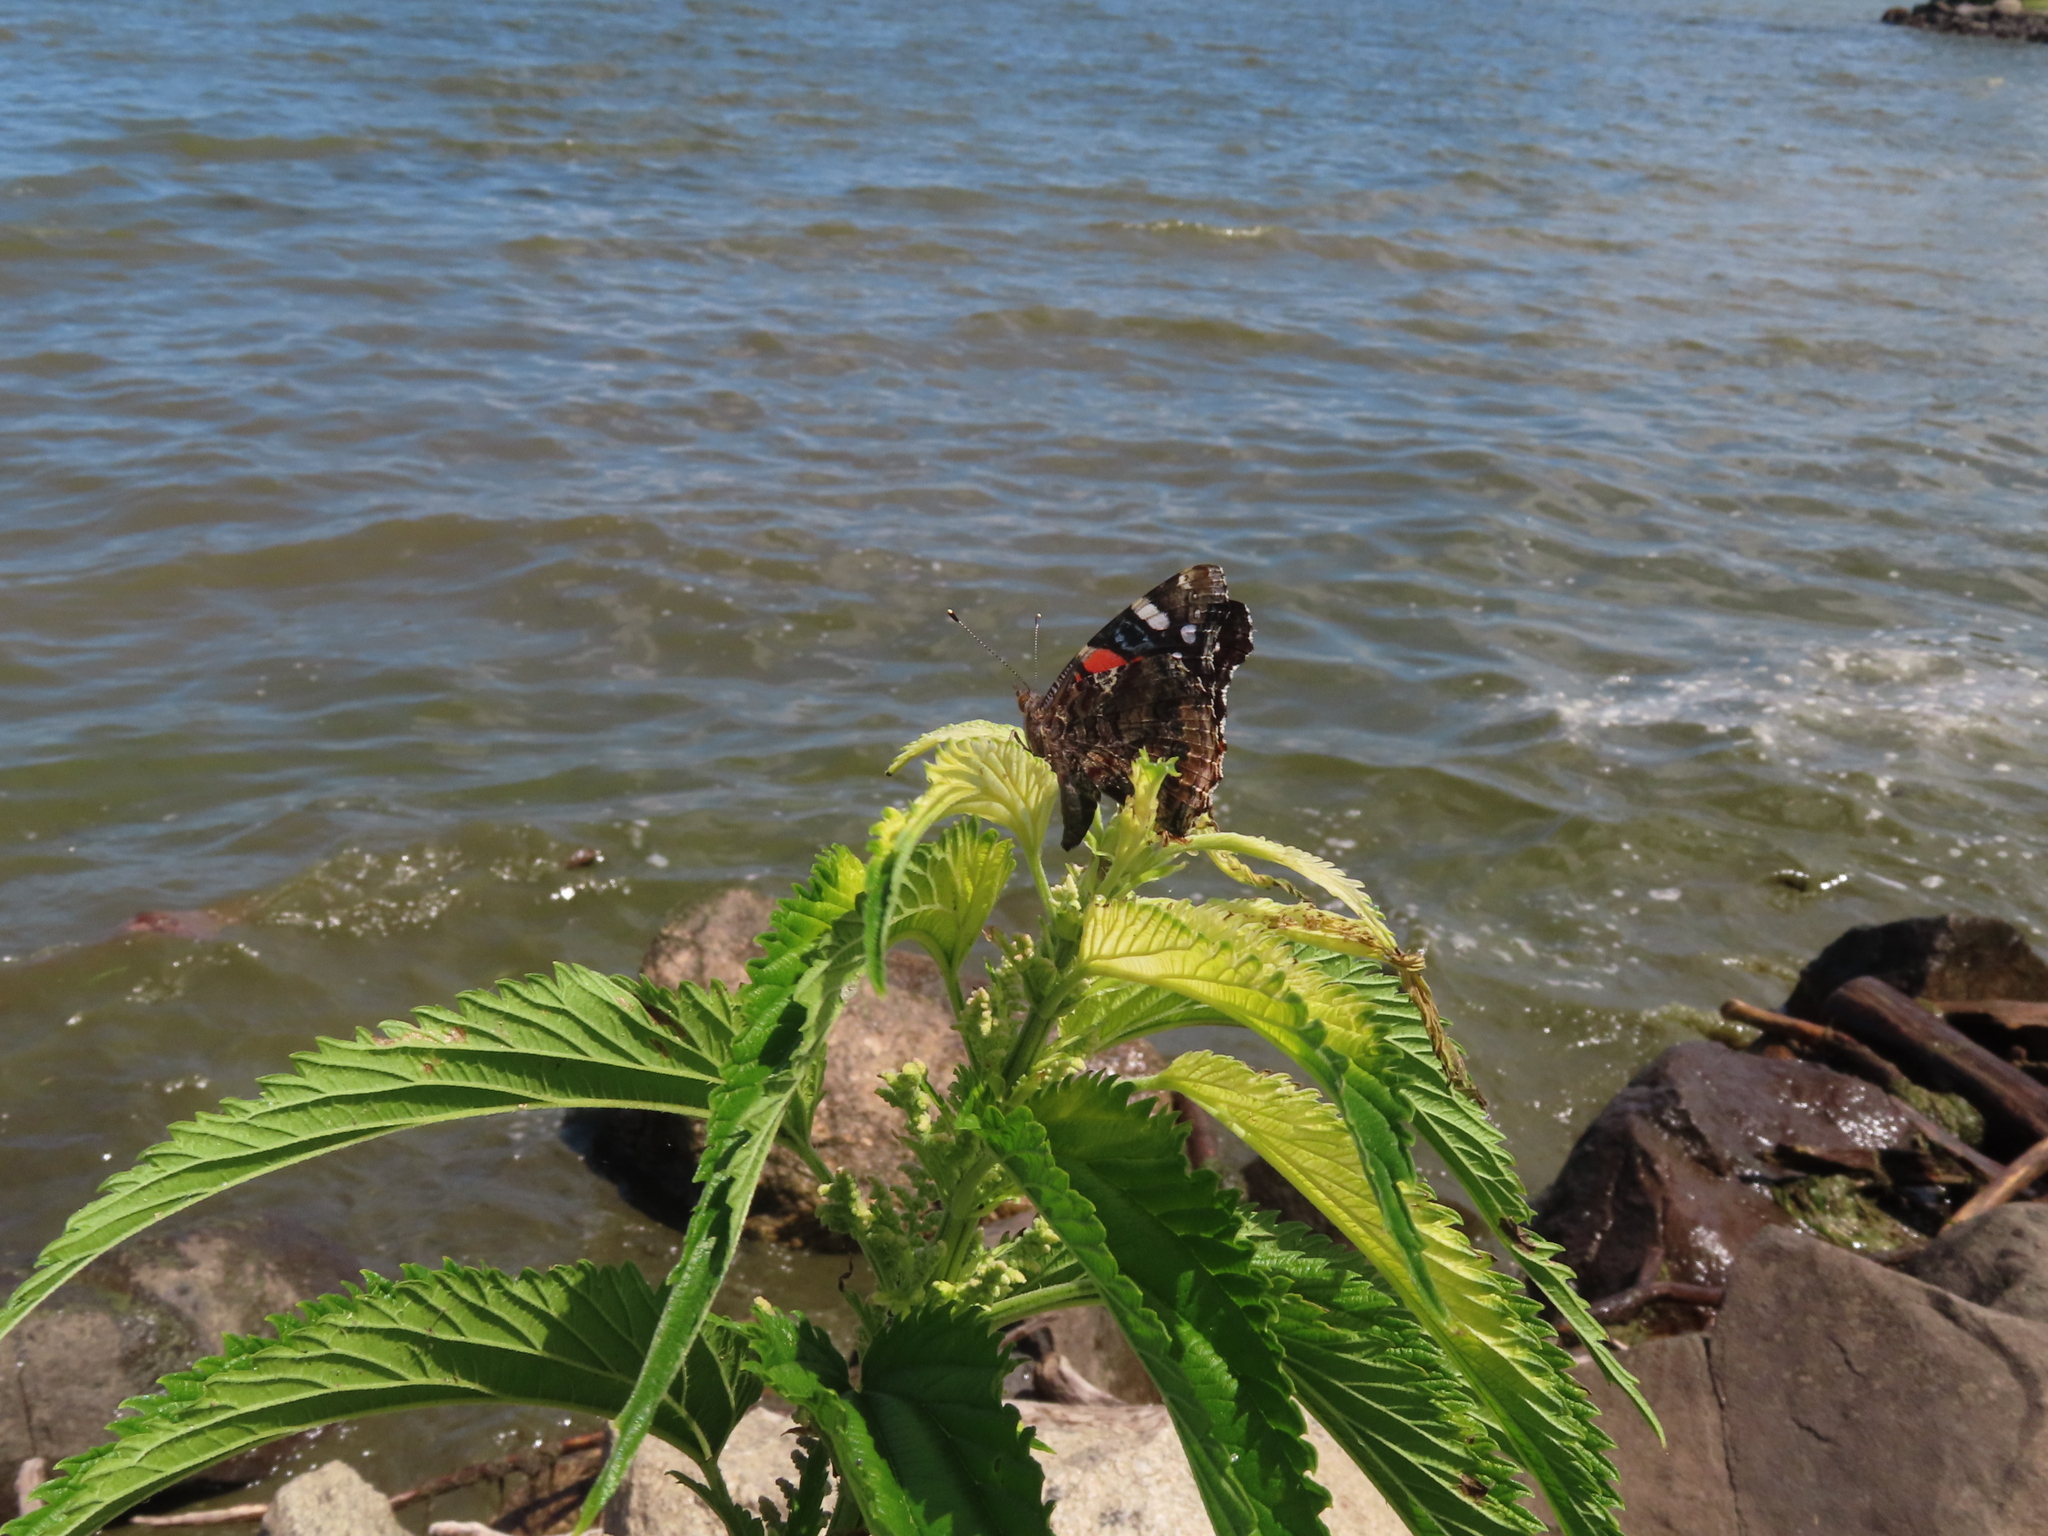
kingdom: Animalia
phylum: Arthropoda
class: Insecta
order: Lepidoptera
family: Nymphalidae
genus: Vanessa
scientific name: Vanessa atalanta
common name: Red admiral
